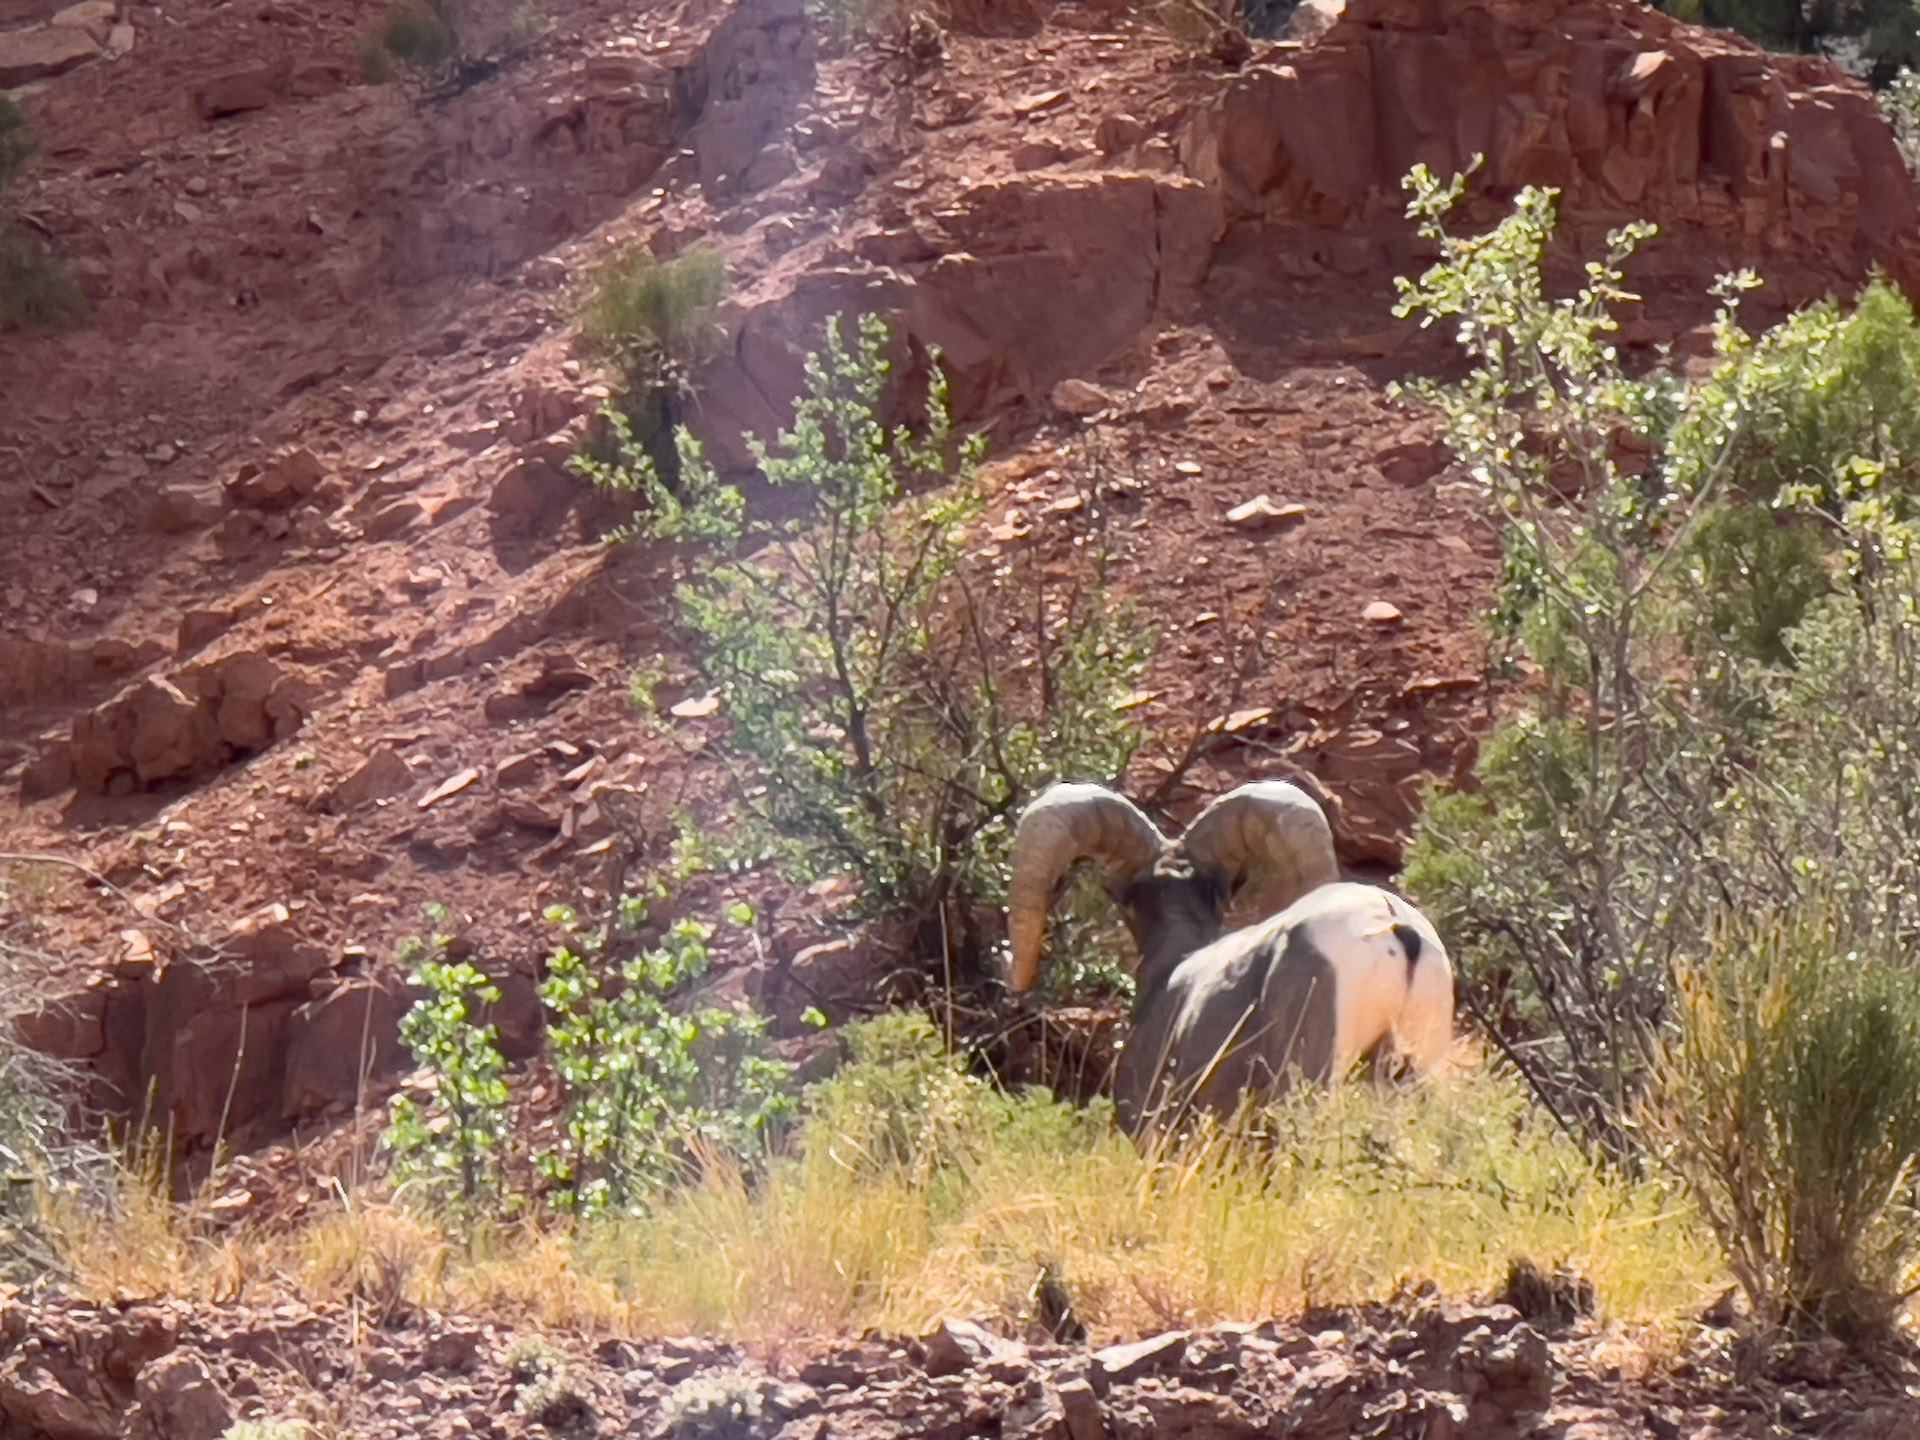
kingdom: Animalia
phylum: Chordata
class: Mammalia
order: Artiodactyla
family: Bovidae
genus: Ovis
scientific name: Ovis canadensis
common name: Bighorn sheep
